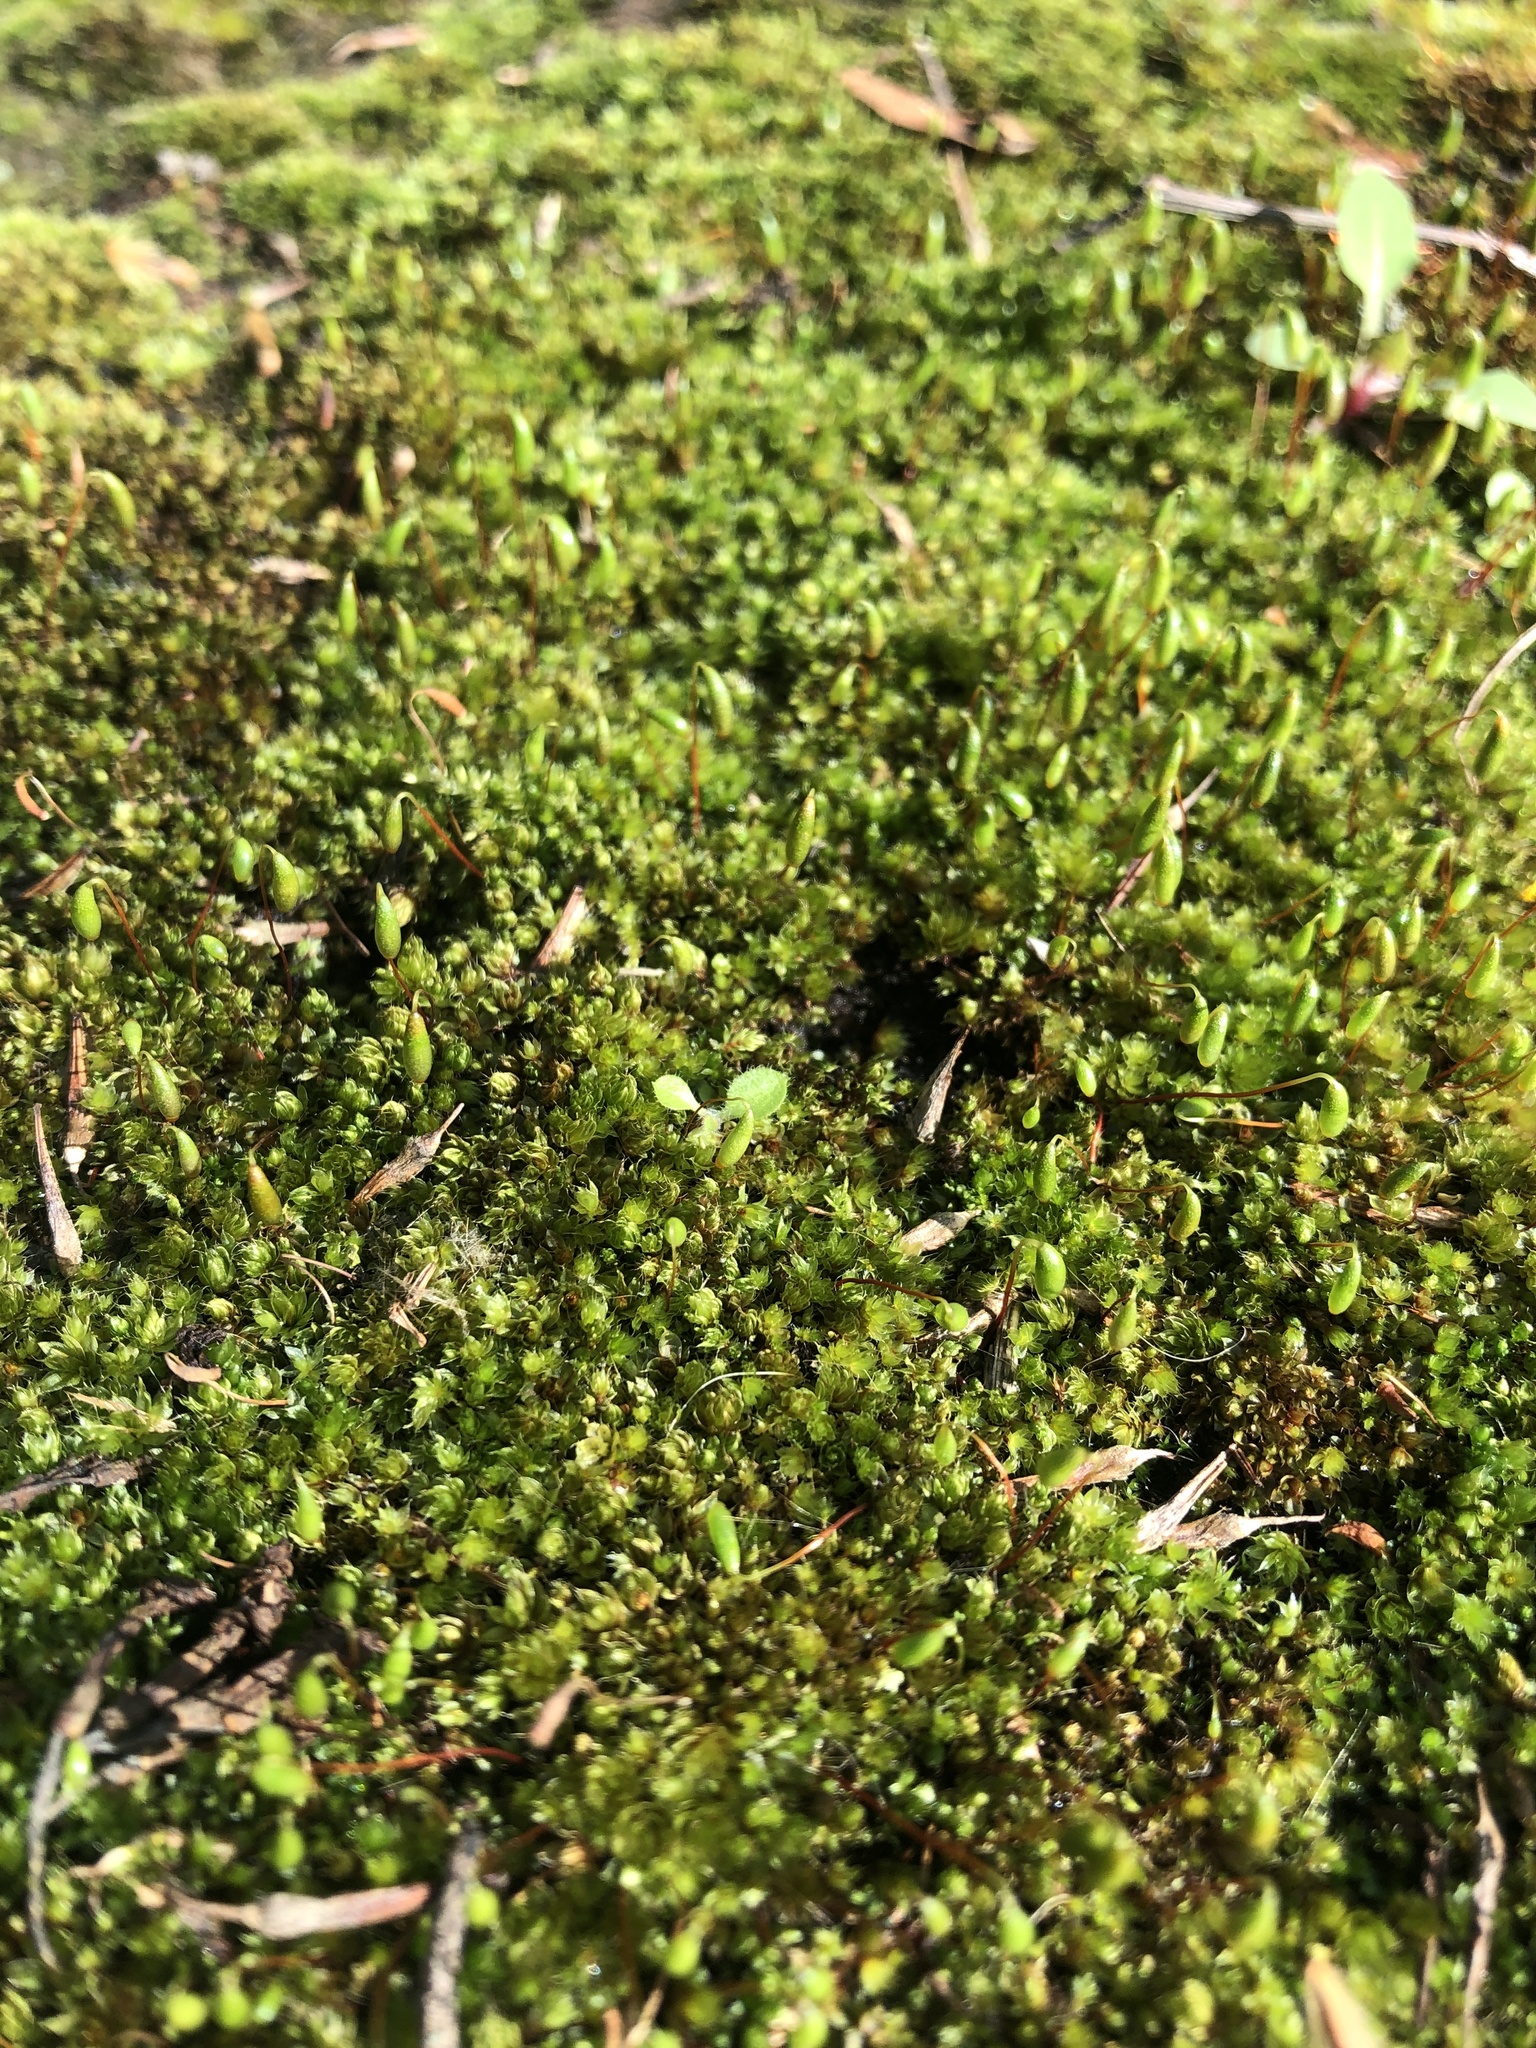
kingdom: Plantae
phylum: Bryophyta
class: Bryopsida
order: Bryales
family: Bryaceae
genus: Rosulabryum
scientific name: Rosulabryum capillare
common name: Capillary thread-moss
